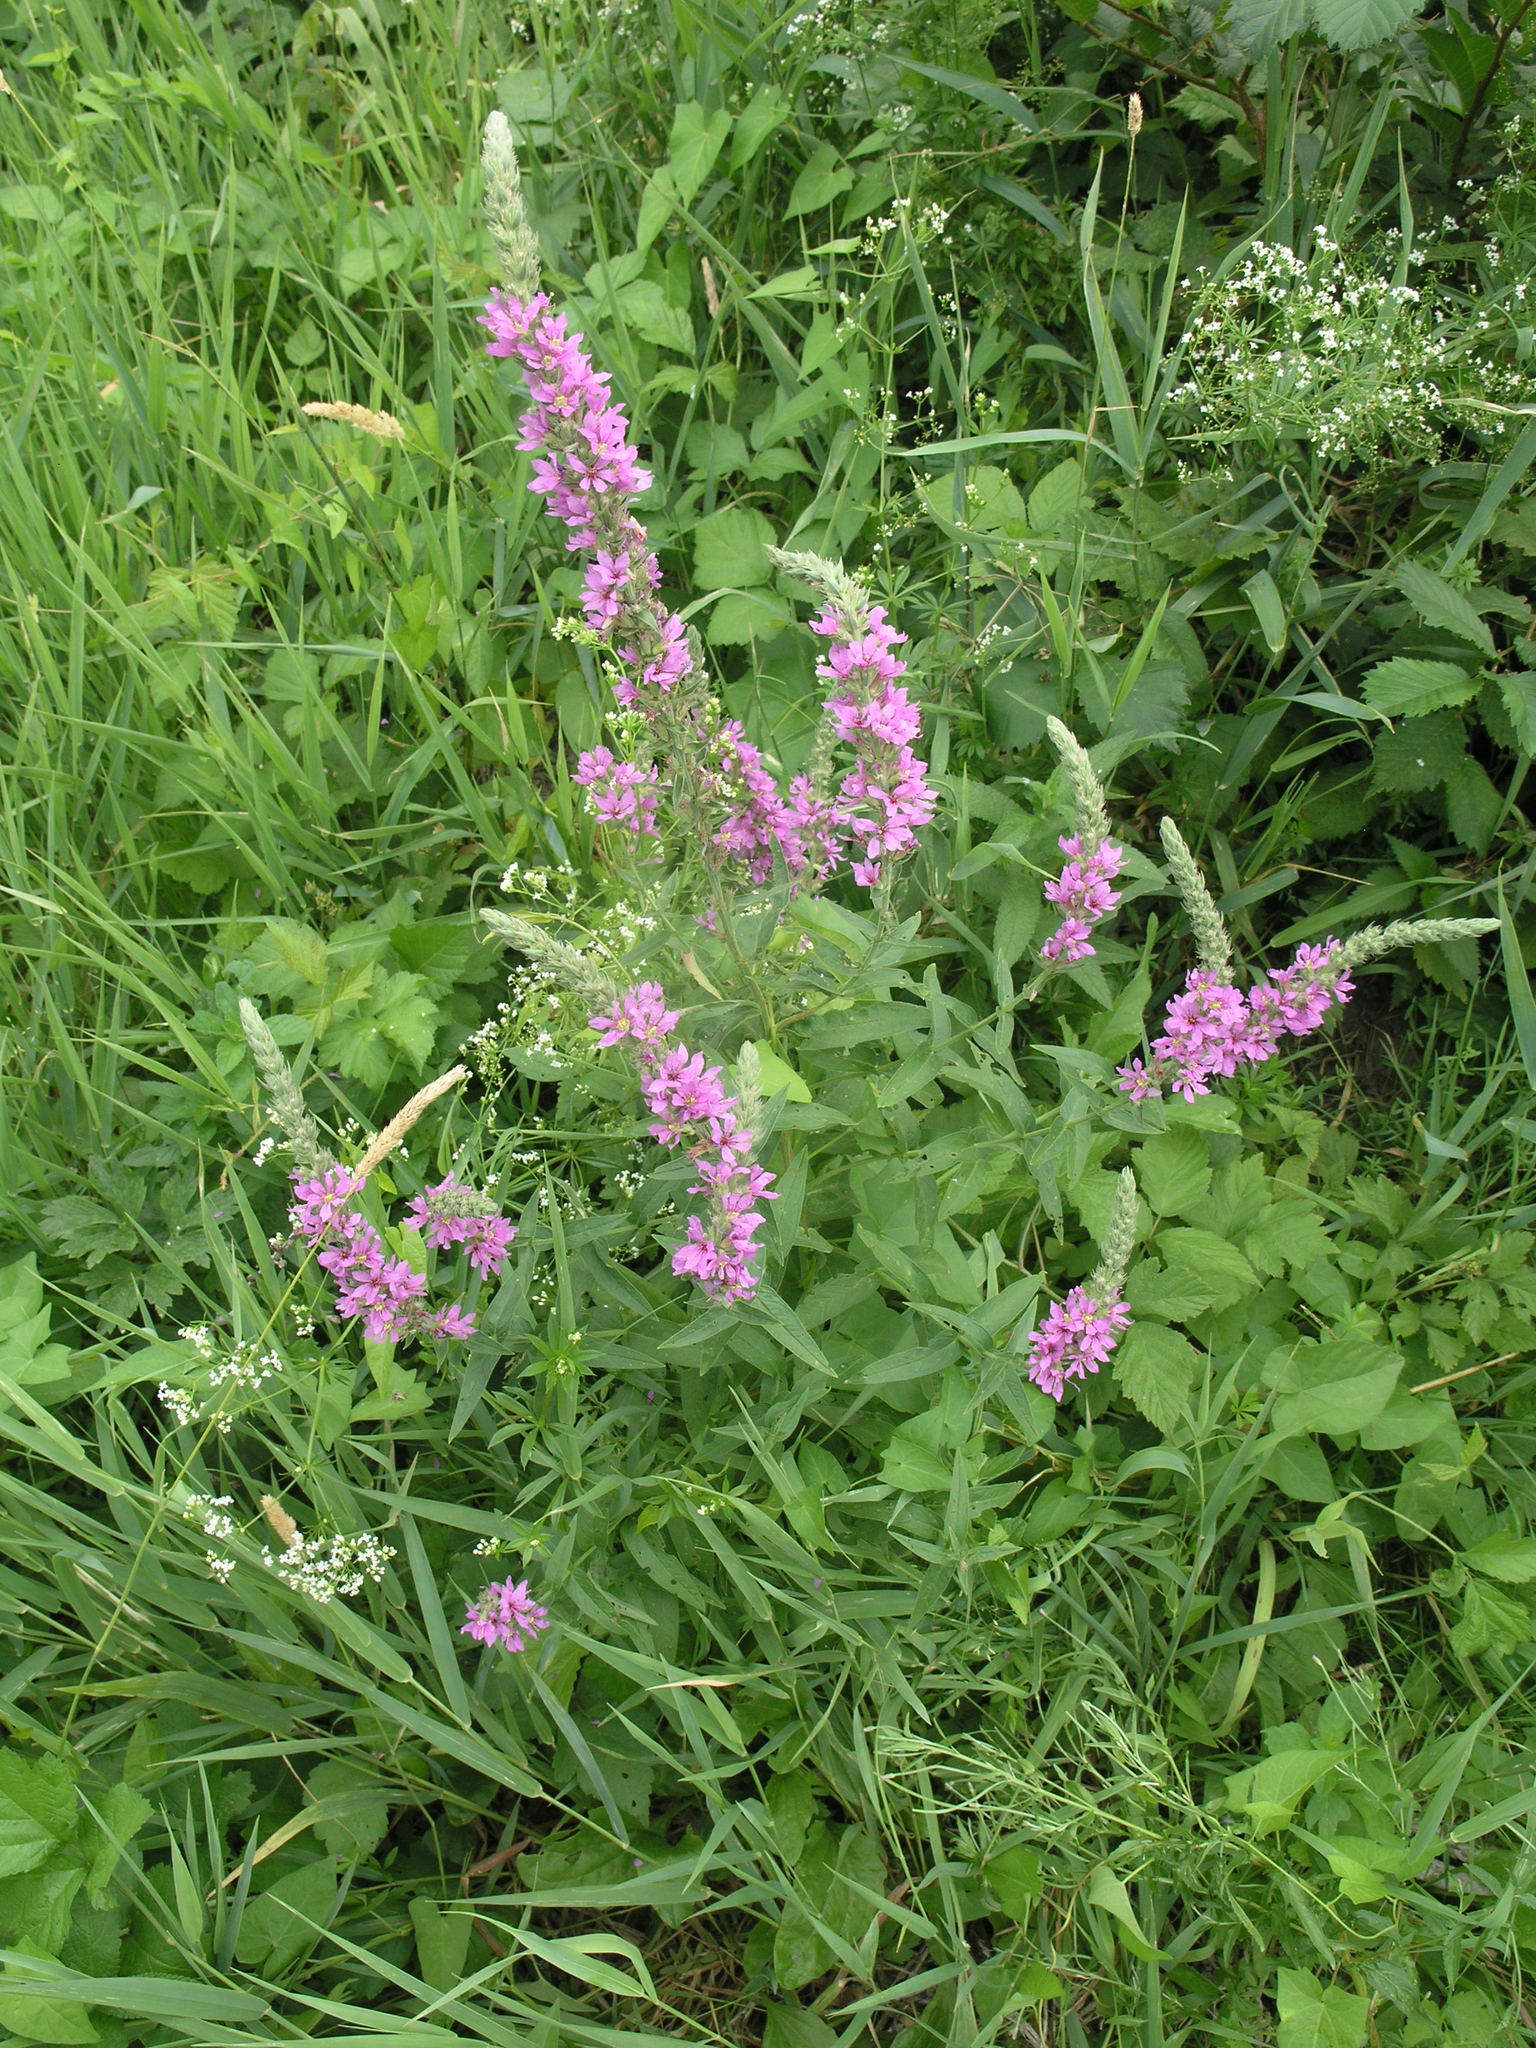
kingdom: Plantae
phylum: Tracheophyta
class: Magnoliopsida
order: Myrtales
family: Lythraceae
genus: Lythrum
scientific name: Lythrum salicaria
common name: Purple loosestrife
